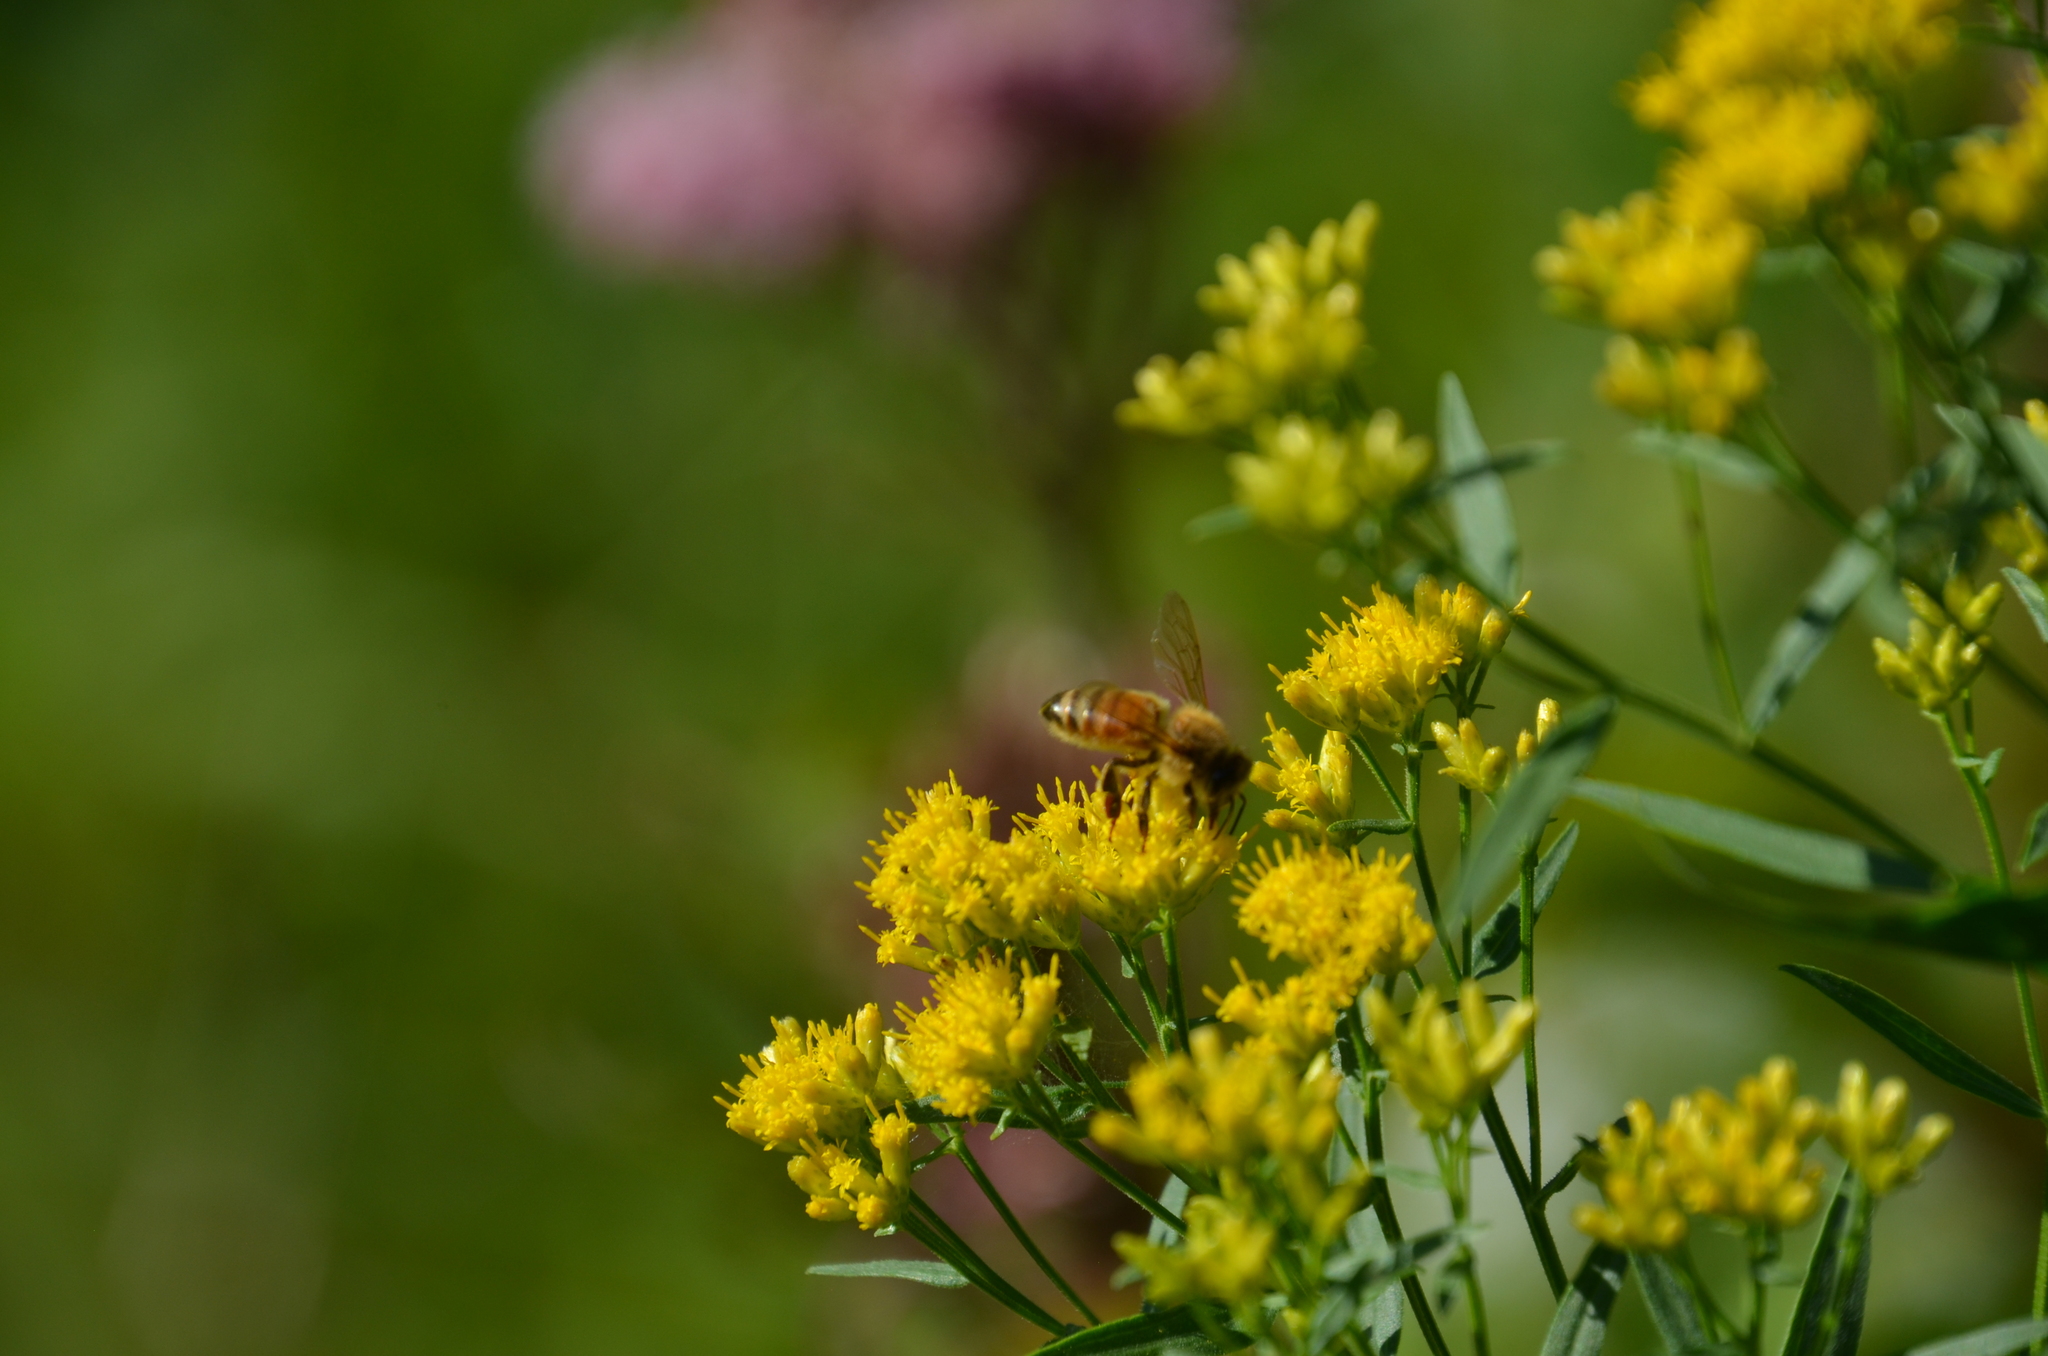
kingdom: Animalia
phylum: Arthropoda
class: Insecta
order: Hymenoptera
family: Apidae
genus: Apis
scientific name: Apis mellifera
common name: Honey bee
